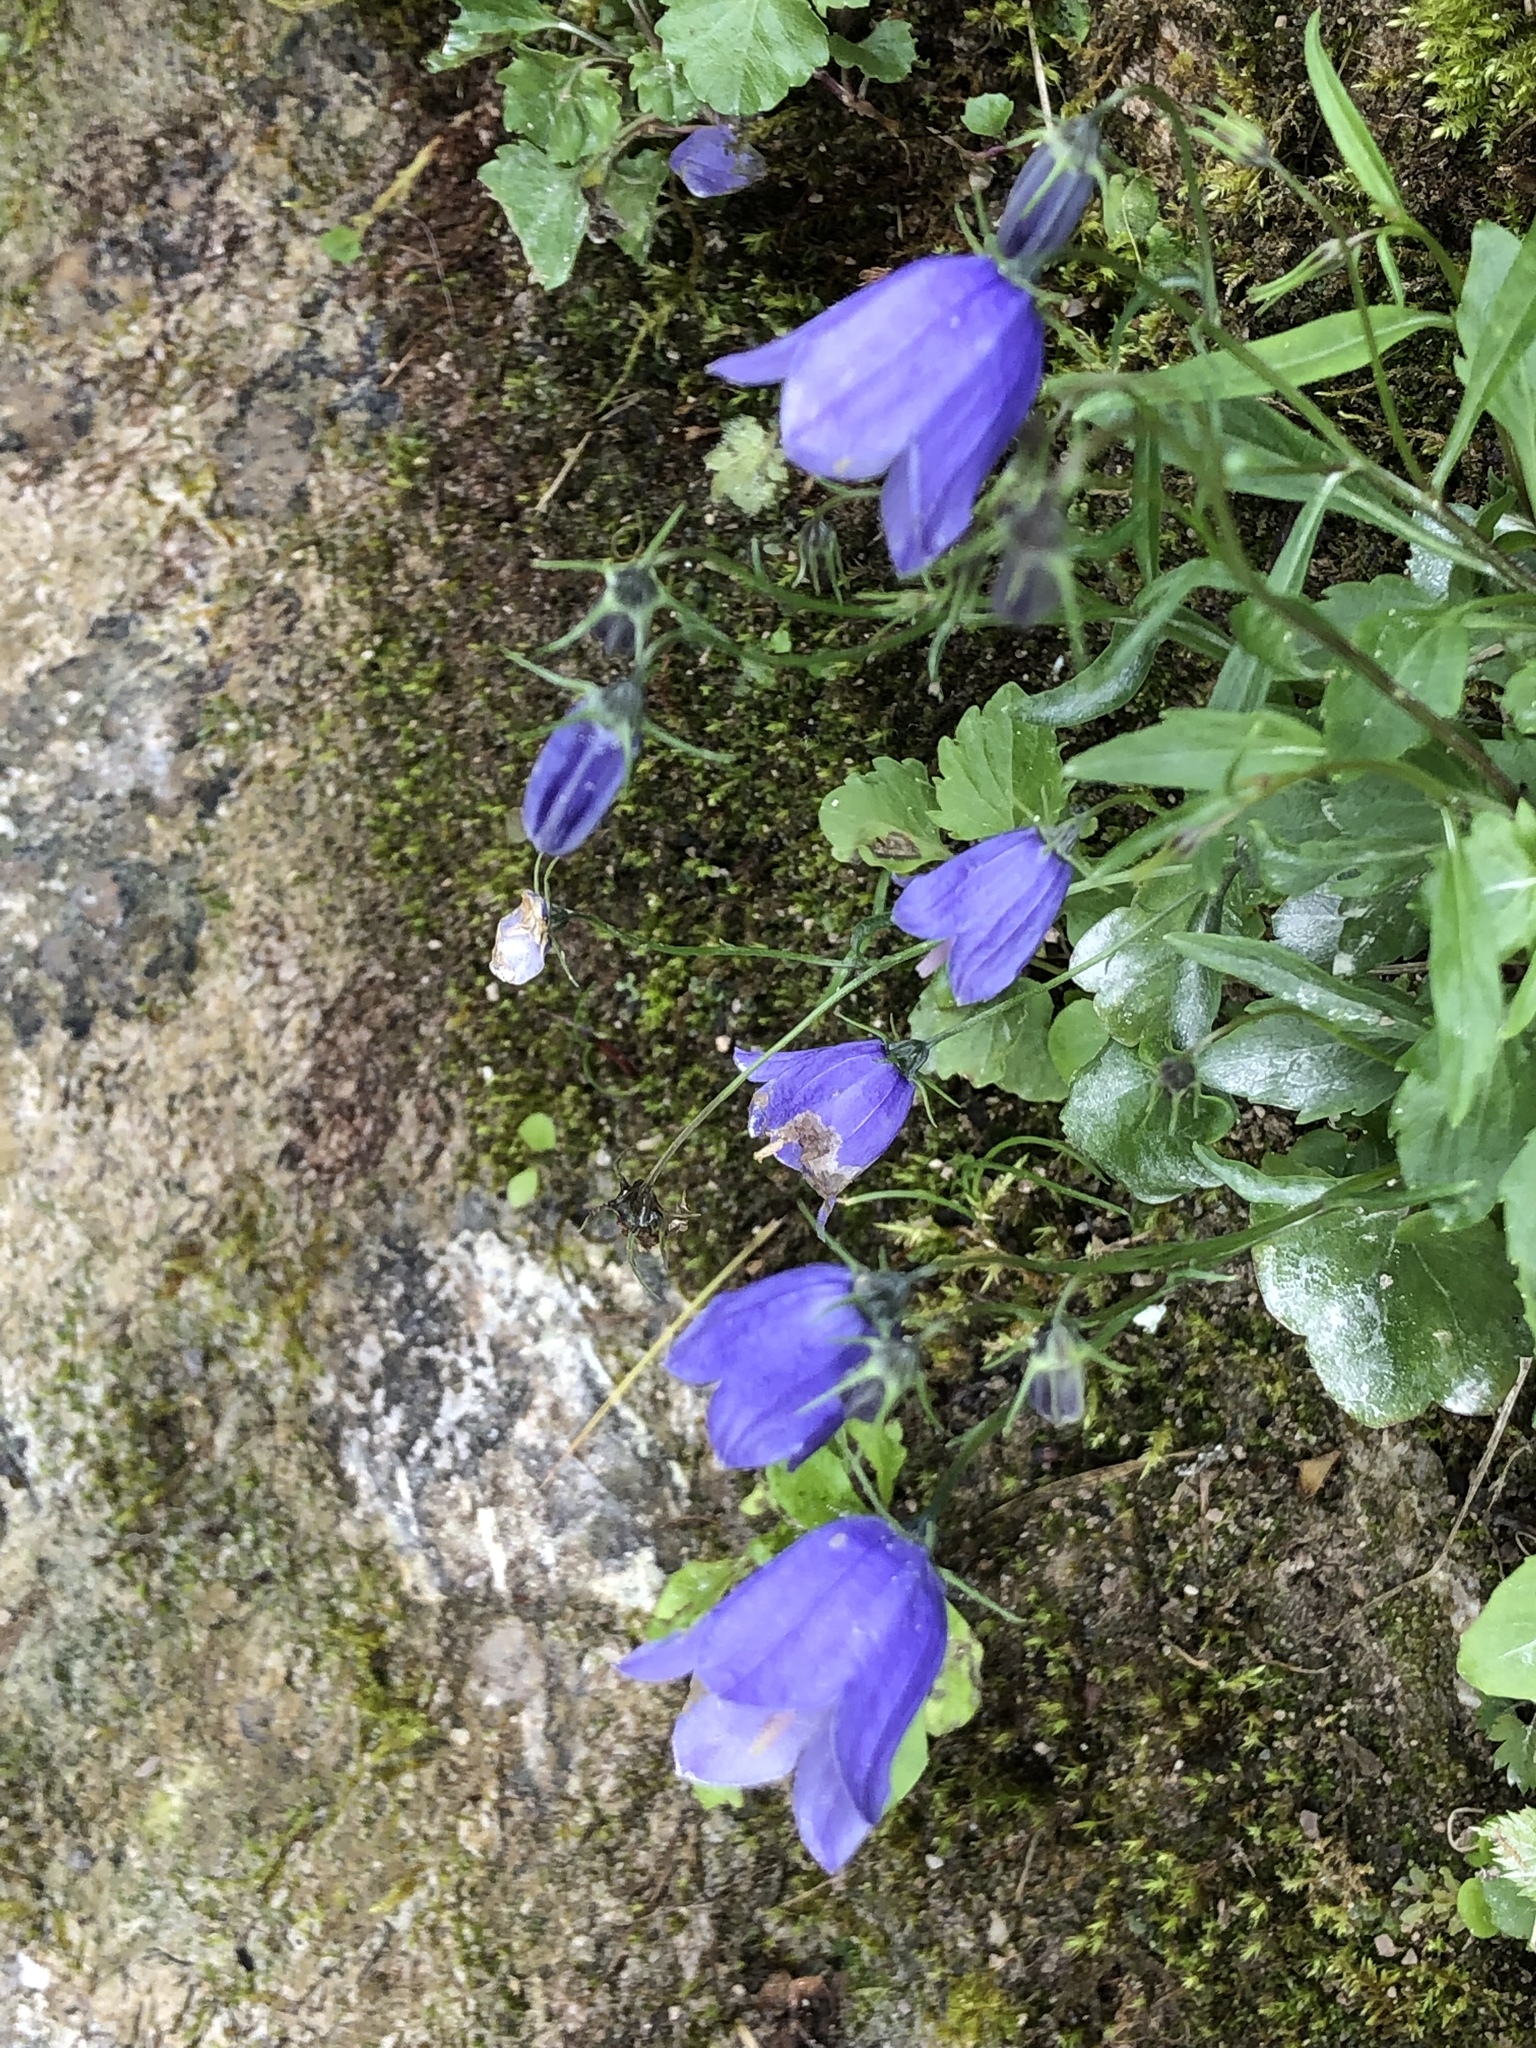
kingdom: Plantae
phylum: Tracheophyta
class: Magnoliopsida
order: Asterales
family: Campanulaceae
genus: Campanula
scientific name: Campanula cochleariifolia
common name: Fairies'-thimbles
